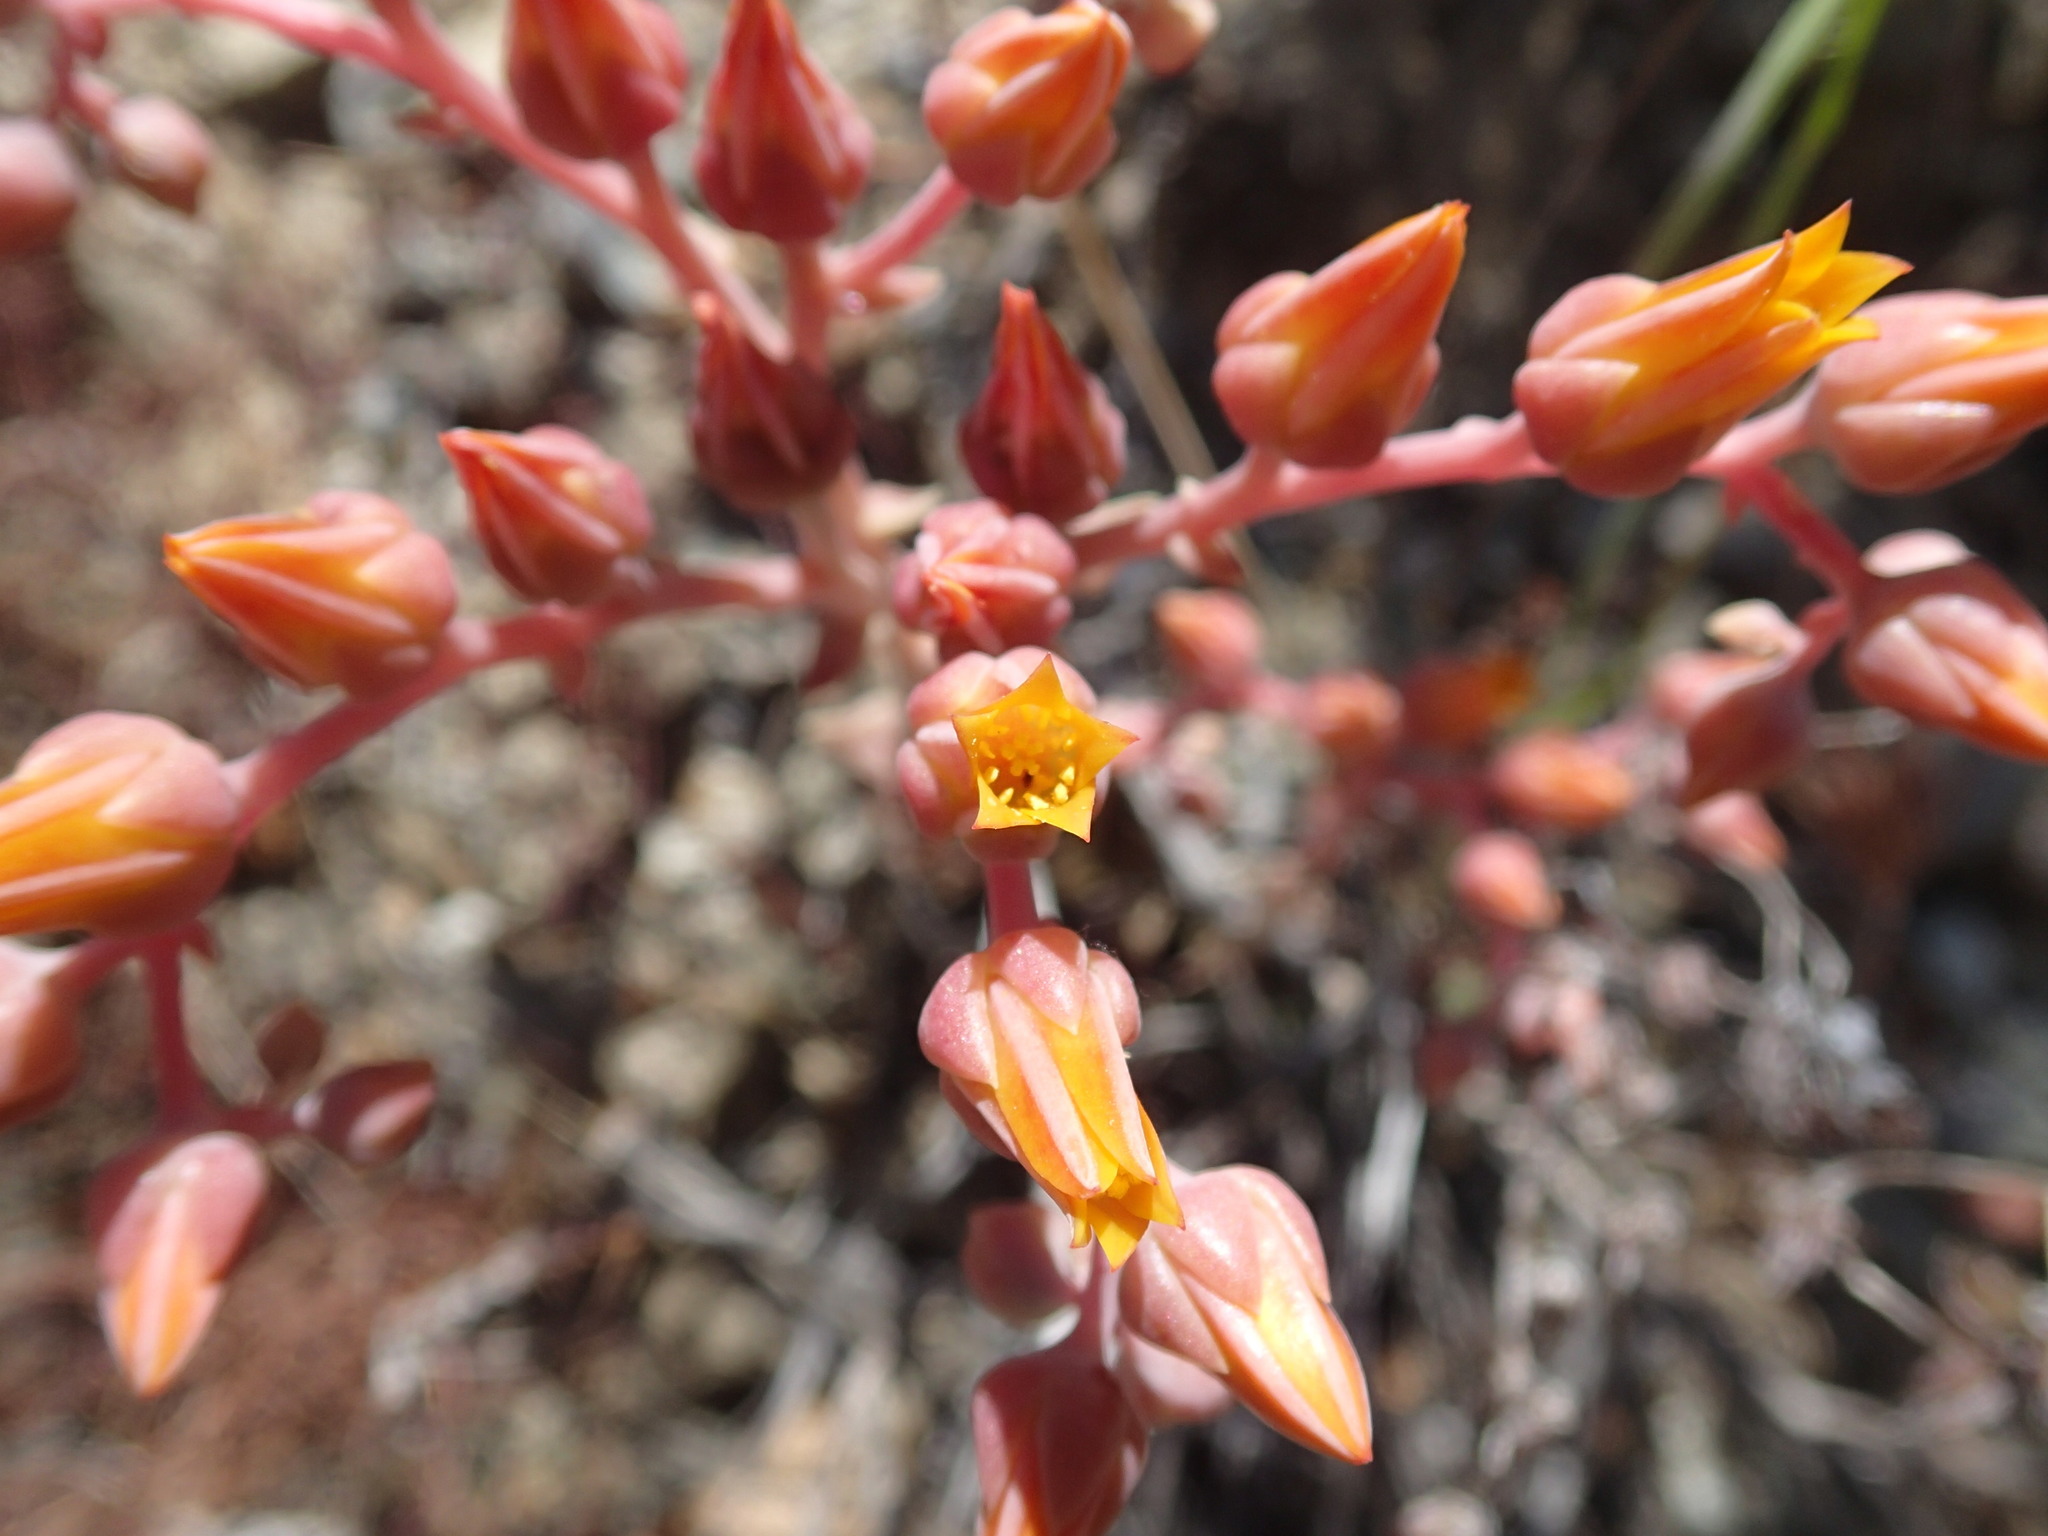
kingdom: Plantae
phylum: Tracheophyta
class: Magnoliopsida
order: Saxifragales
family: Crassulaceae
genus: Dudleya
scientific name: Dudleya lanceolata
